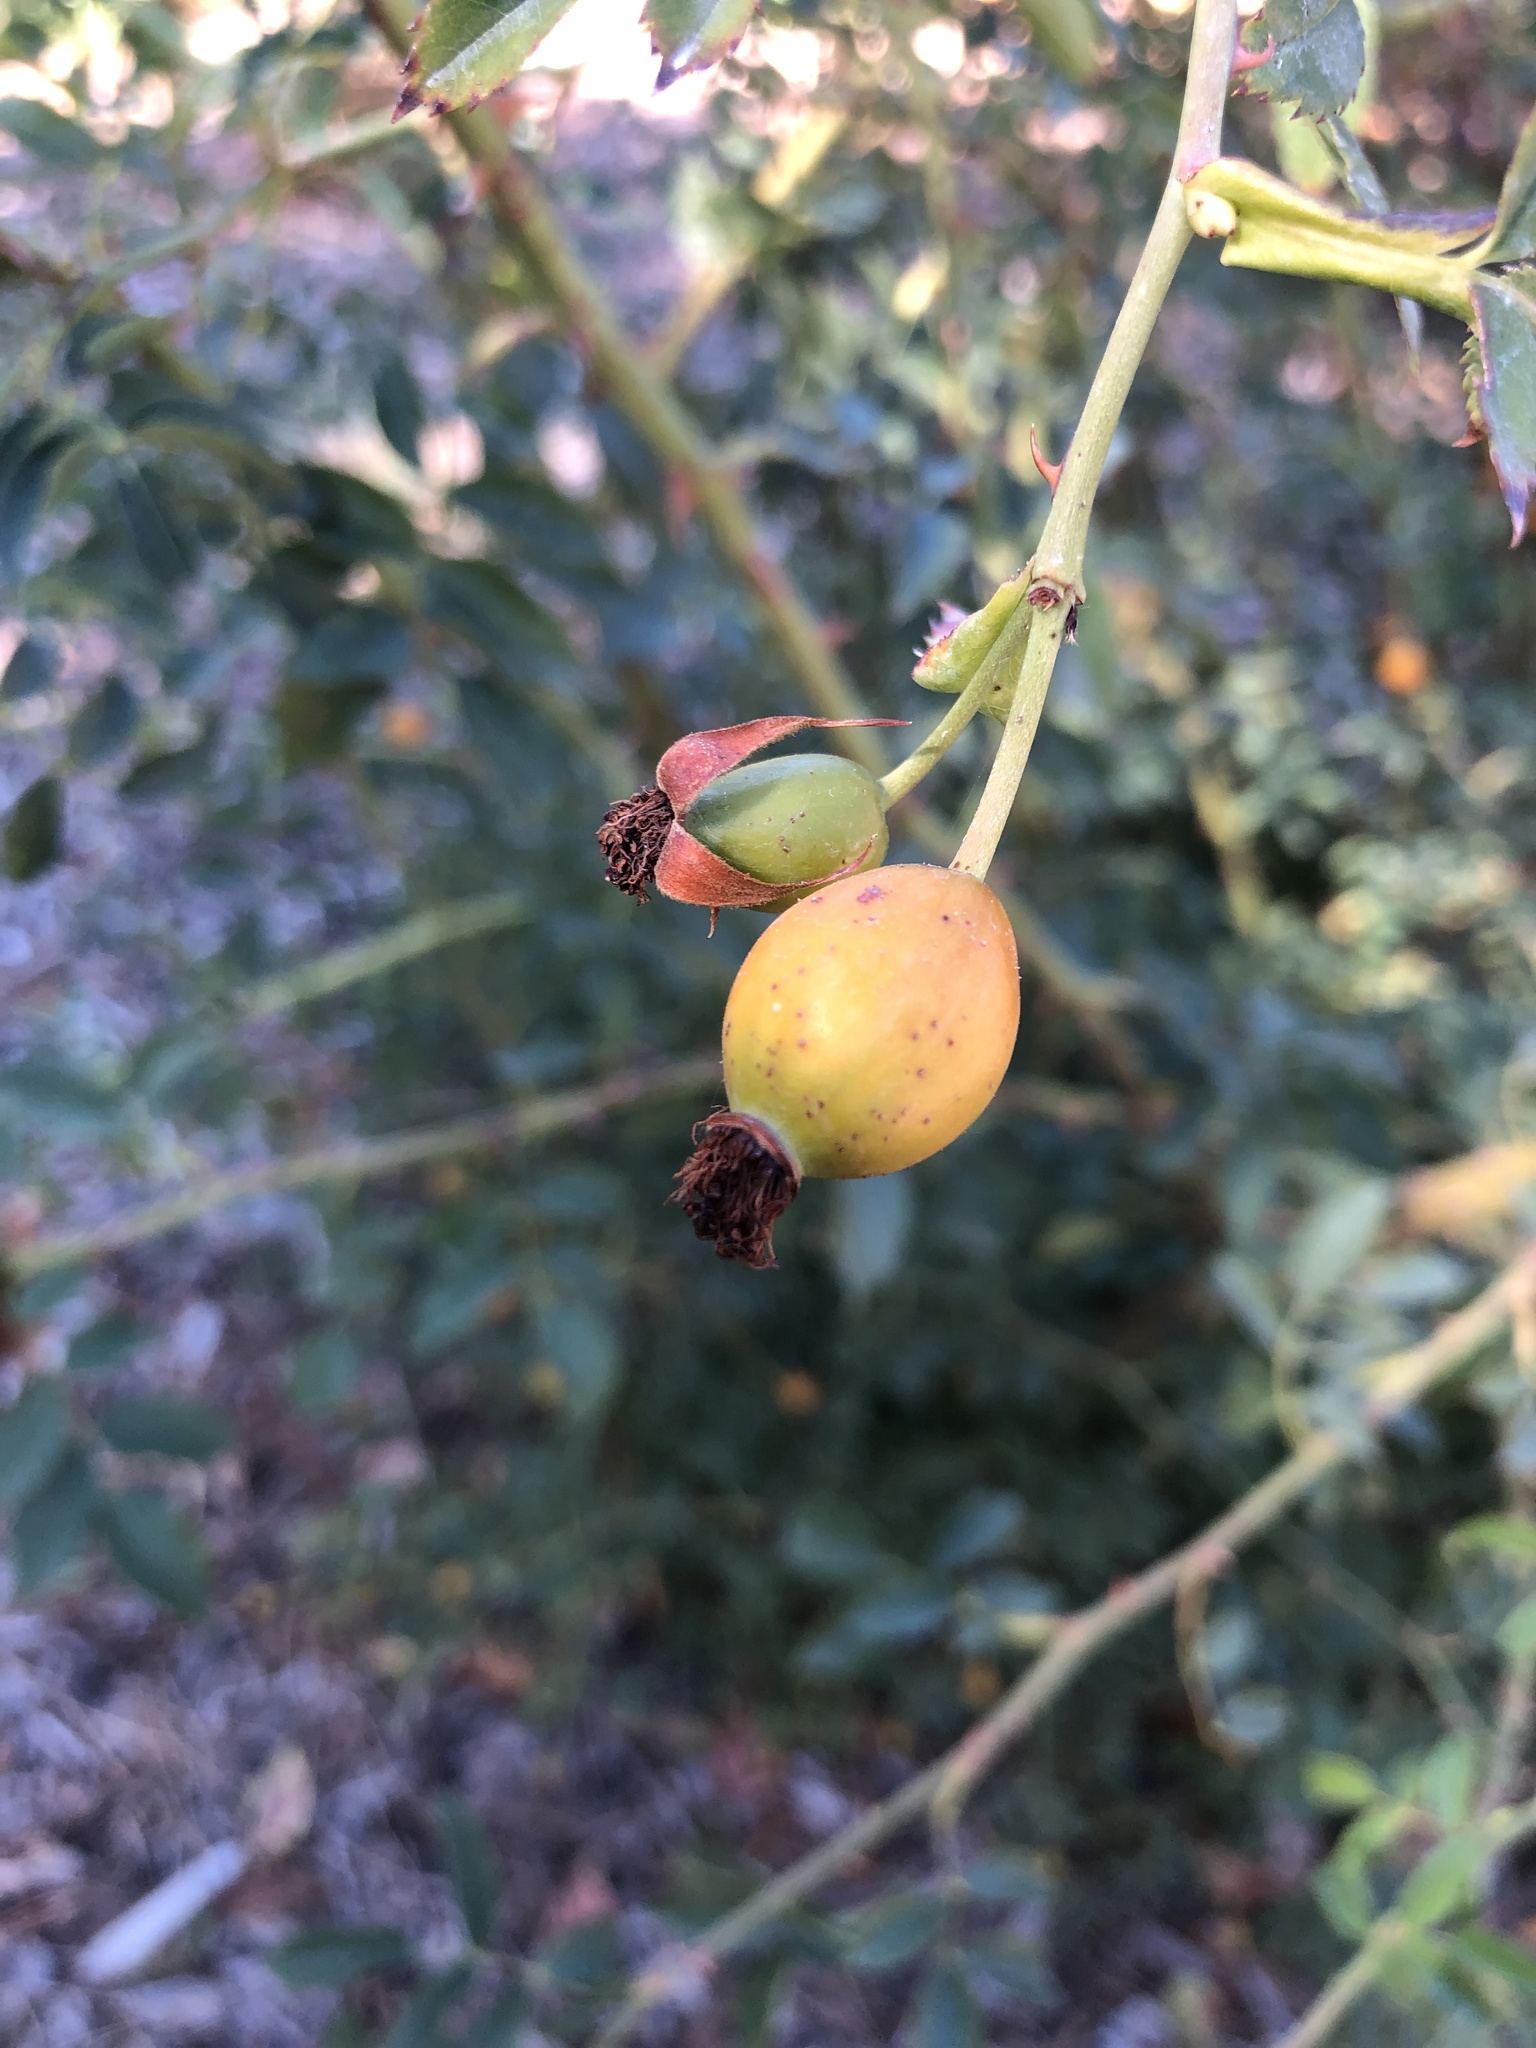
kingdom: Animalia
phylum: Arthropoda
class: Insecta
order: Hymenoptera
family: Cynipidae
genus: Diplolepis
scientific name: Diplolepis rosae
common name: Bedeguar gall
